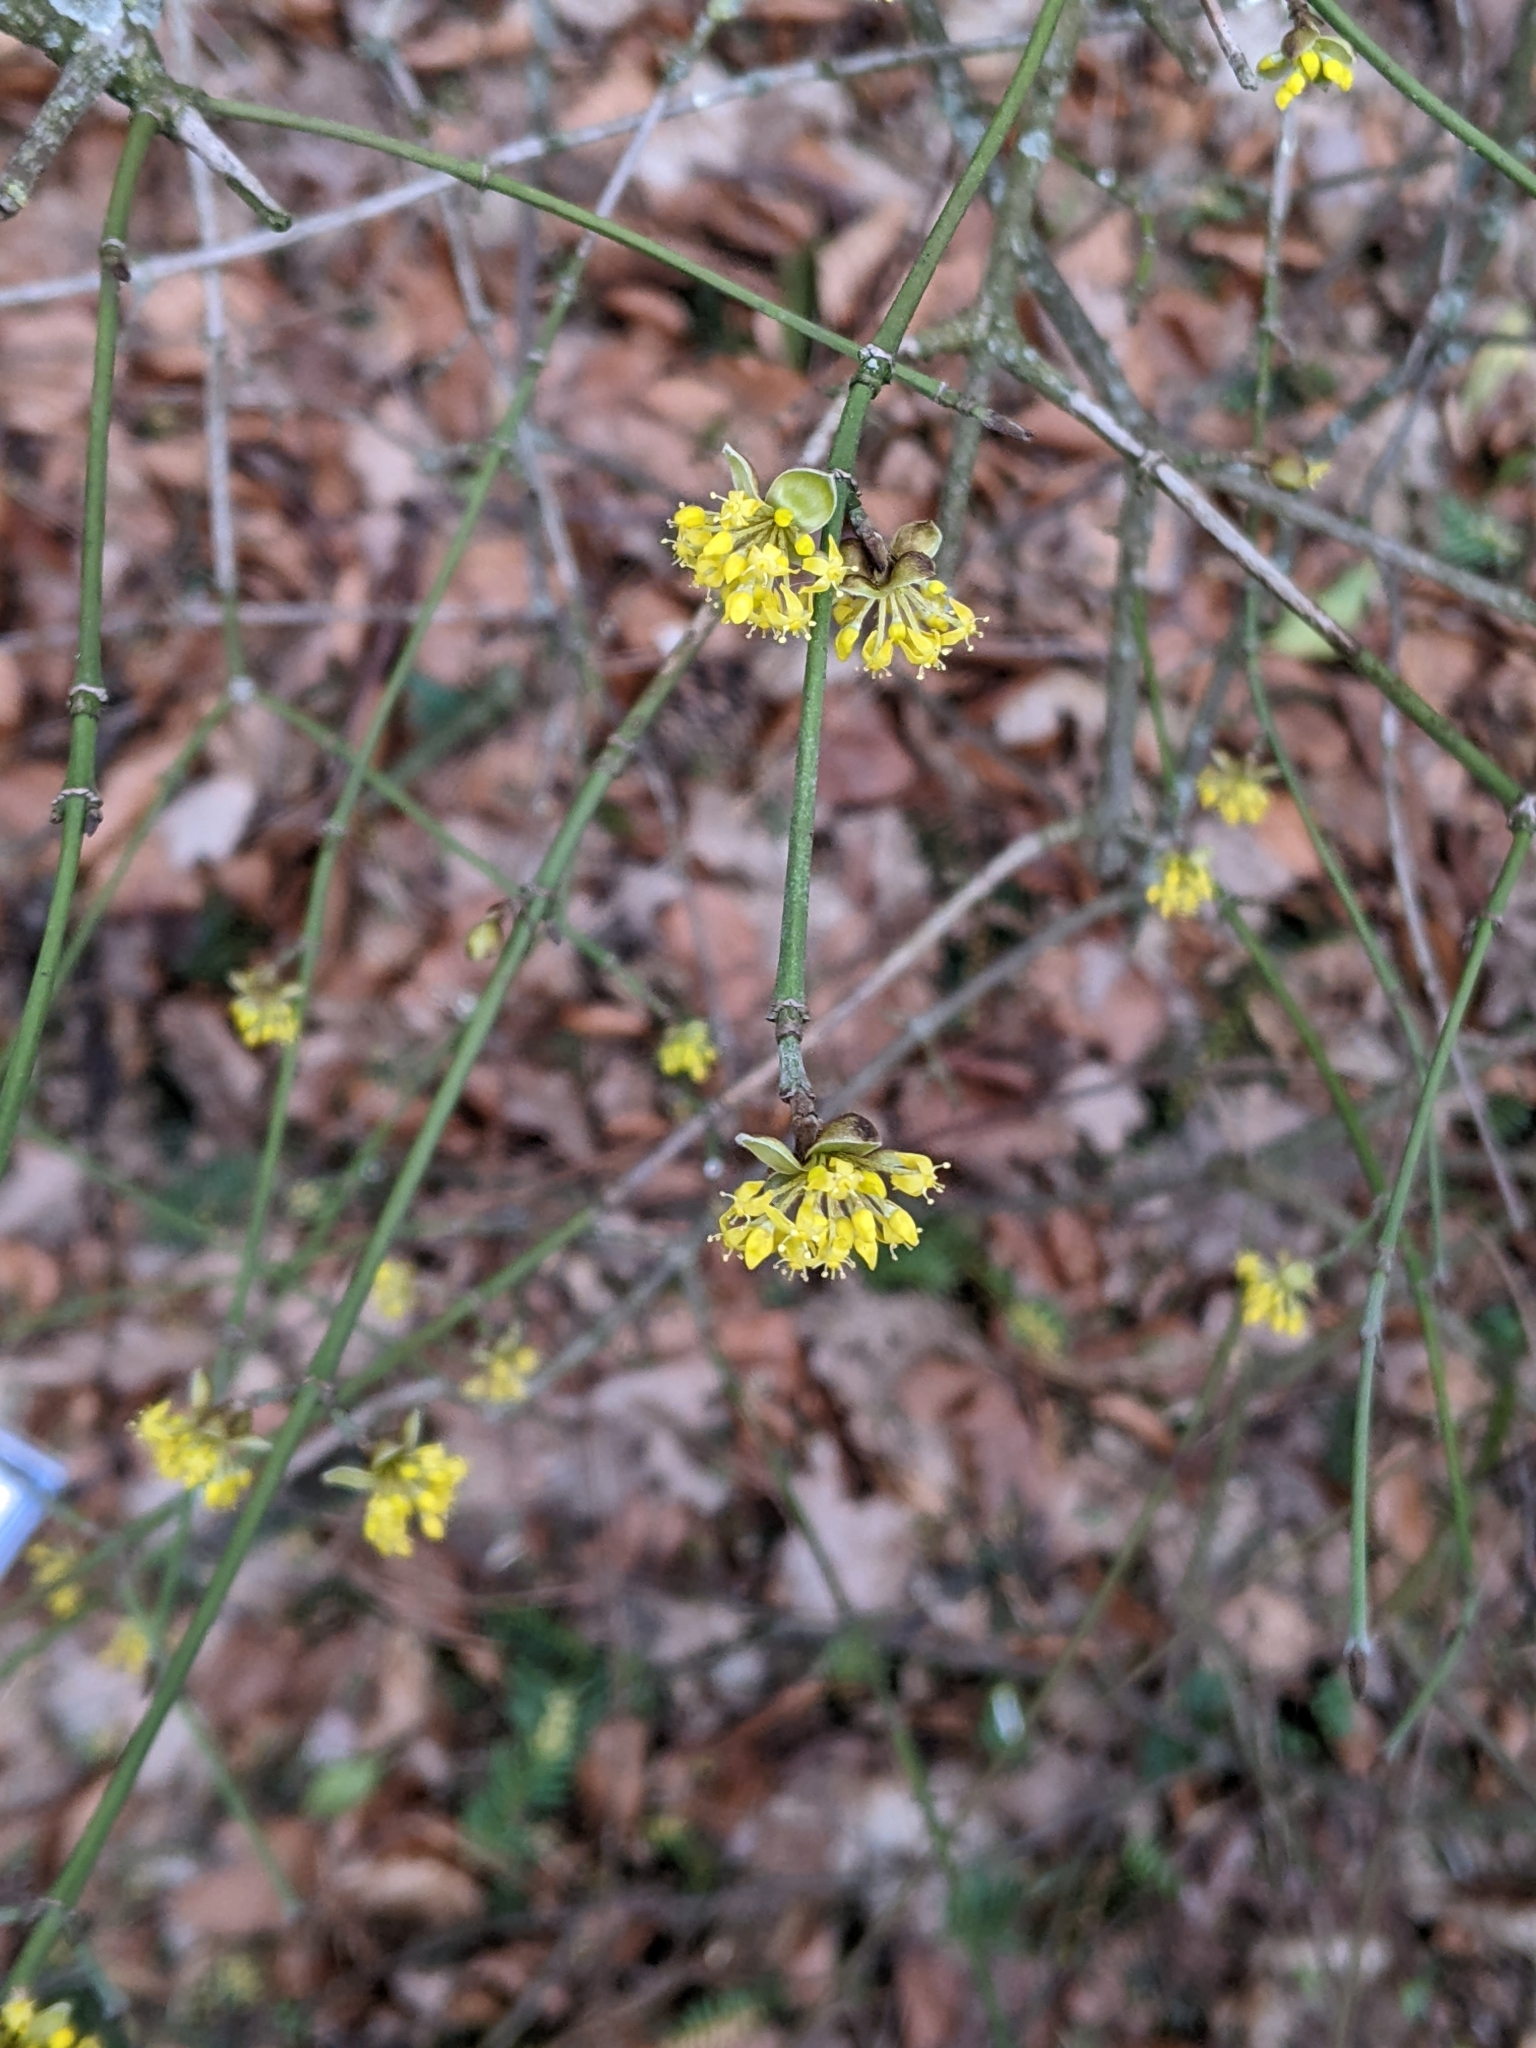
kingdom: Plantae
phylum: Tracheophyta
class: Magnoliopsida
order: Cornales
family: Cornaceae
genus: Cornus
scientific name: Cornus mas
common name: Cornelian-cherry
